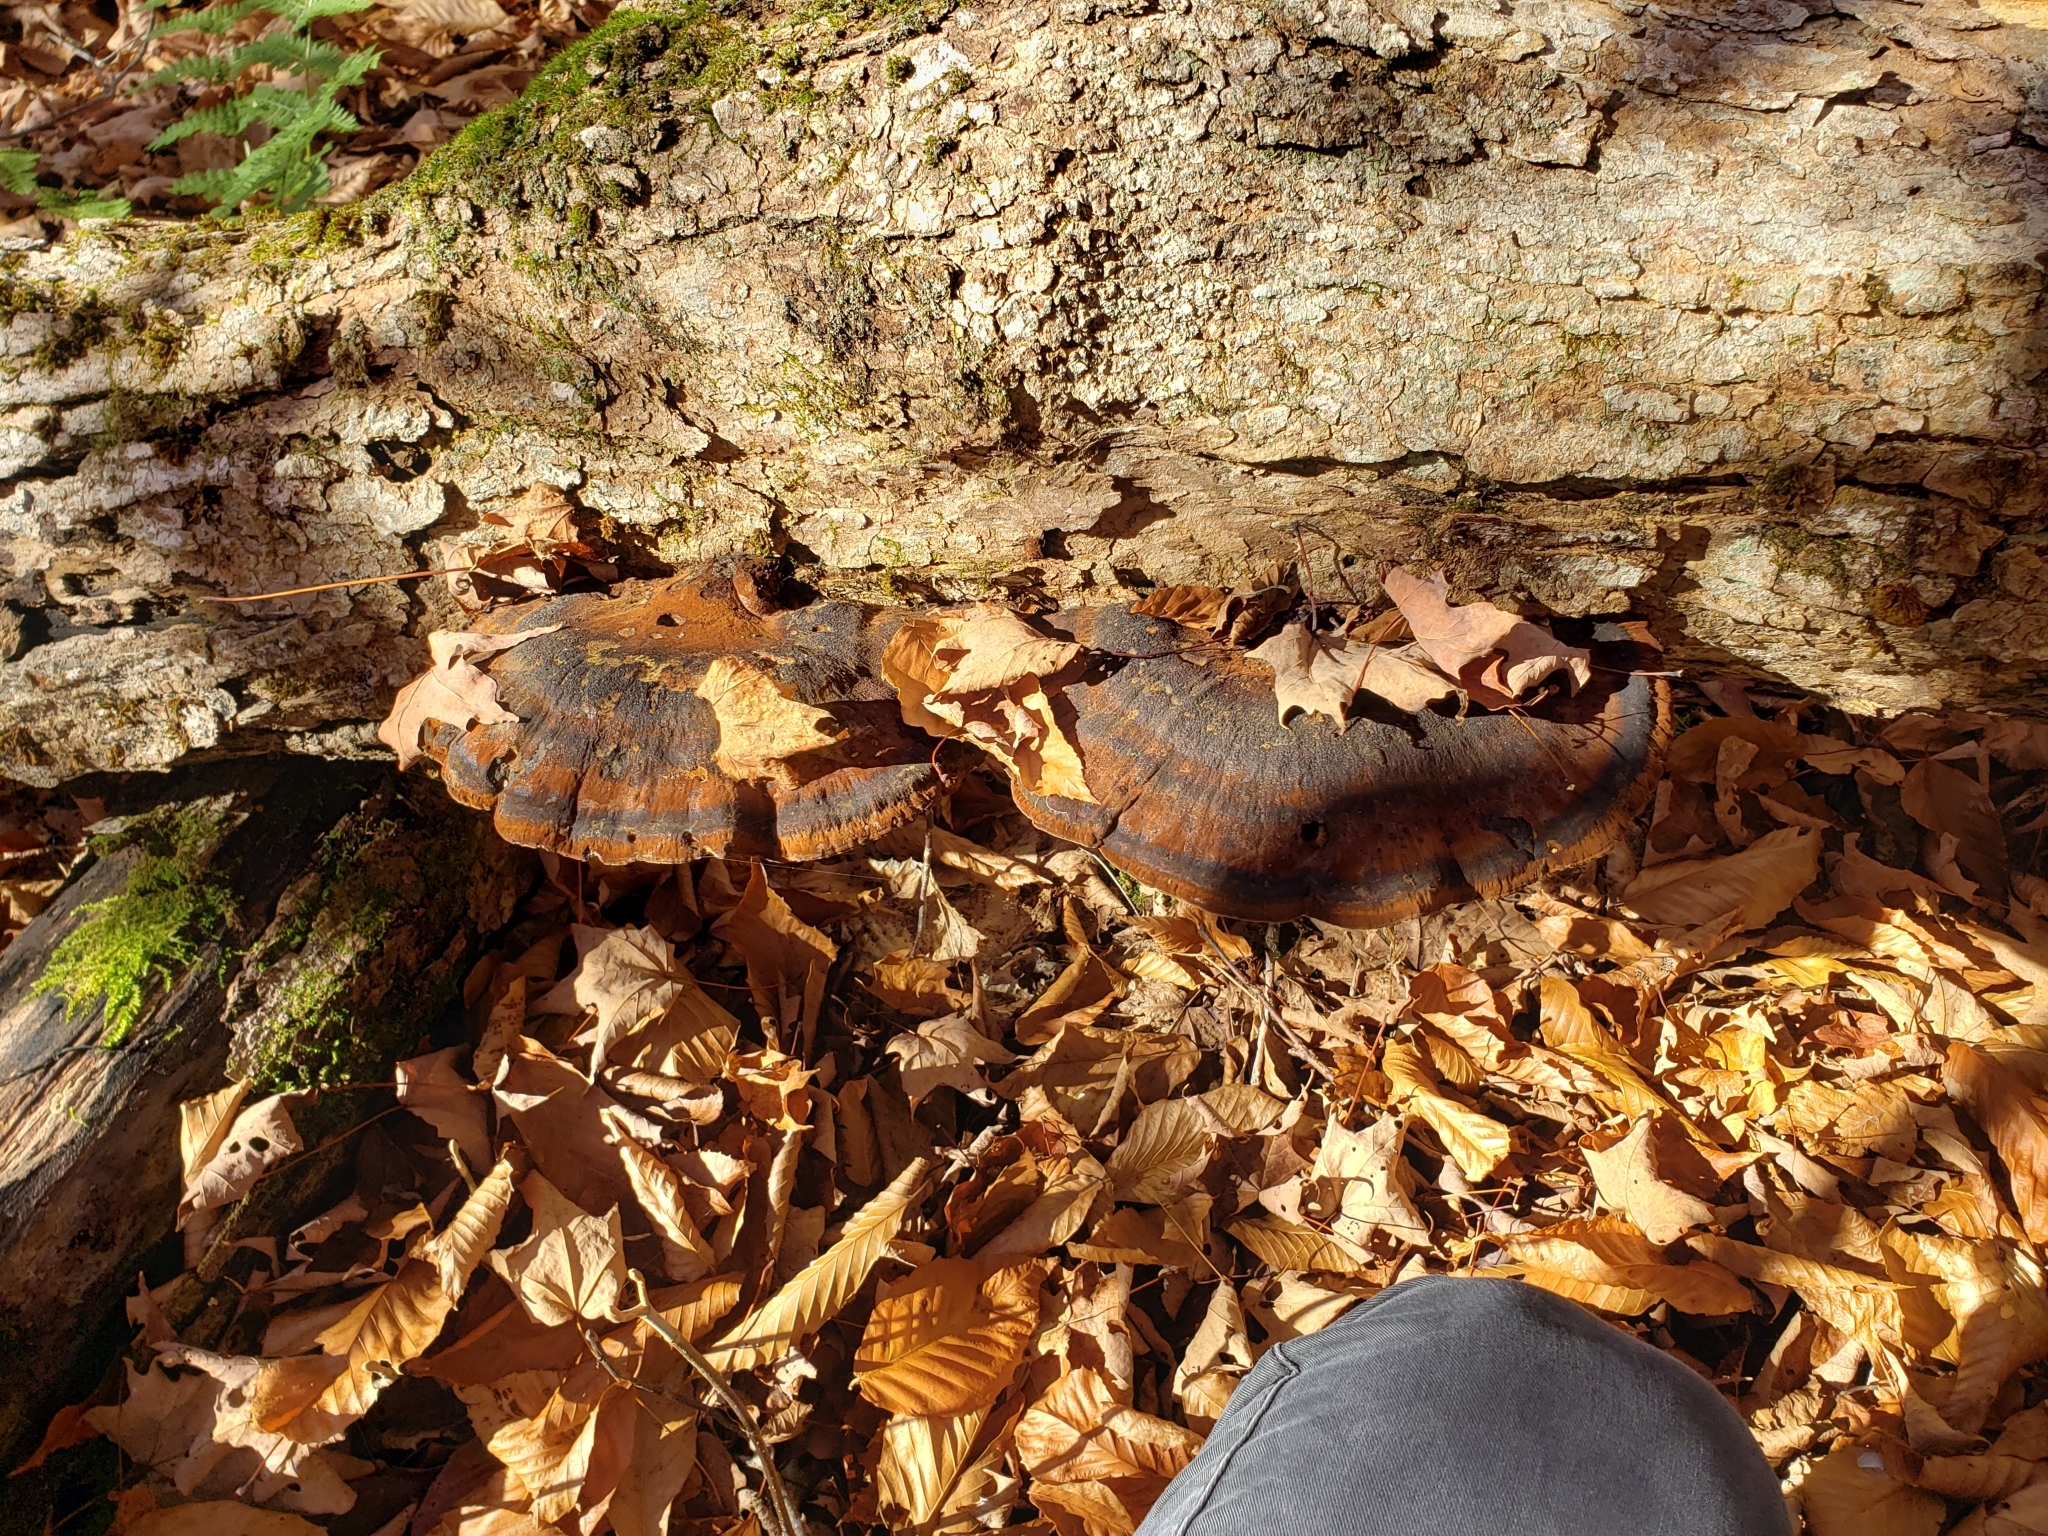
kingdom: Fungi
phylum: Basidiomycota
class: Agaricomycetes
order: Polyporales
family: Ischnodermataceae
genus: Ischnoderma
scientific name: Ischnoderma resinosum
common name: Resinous polypore
